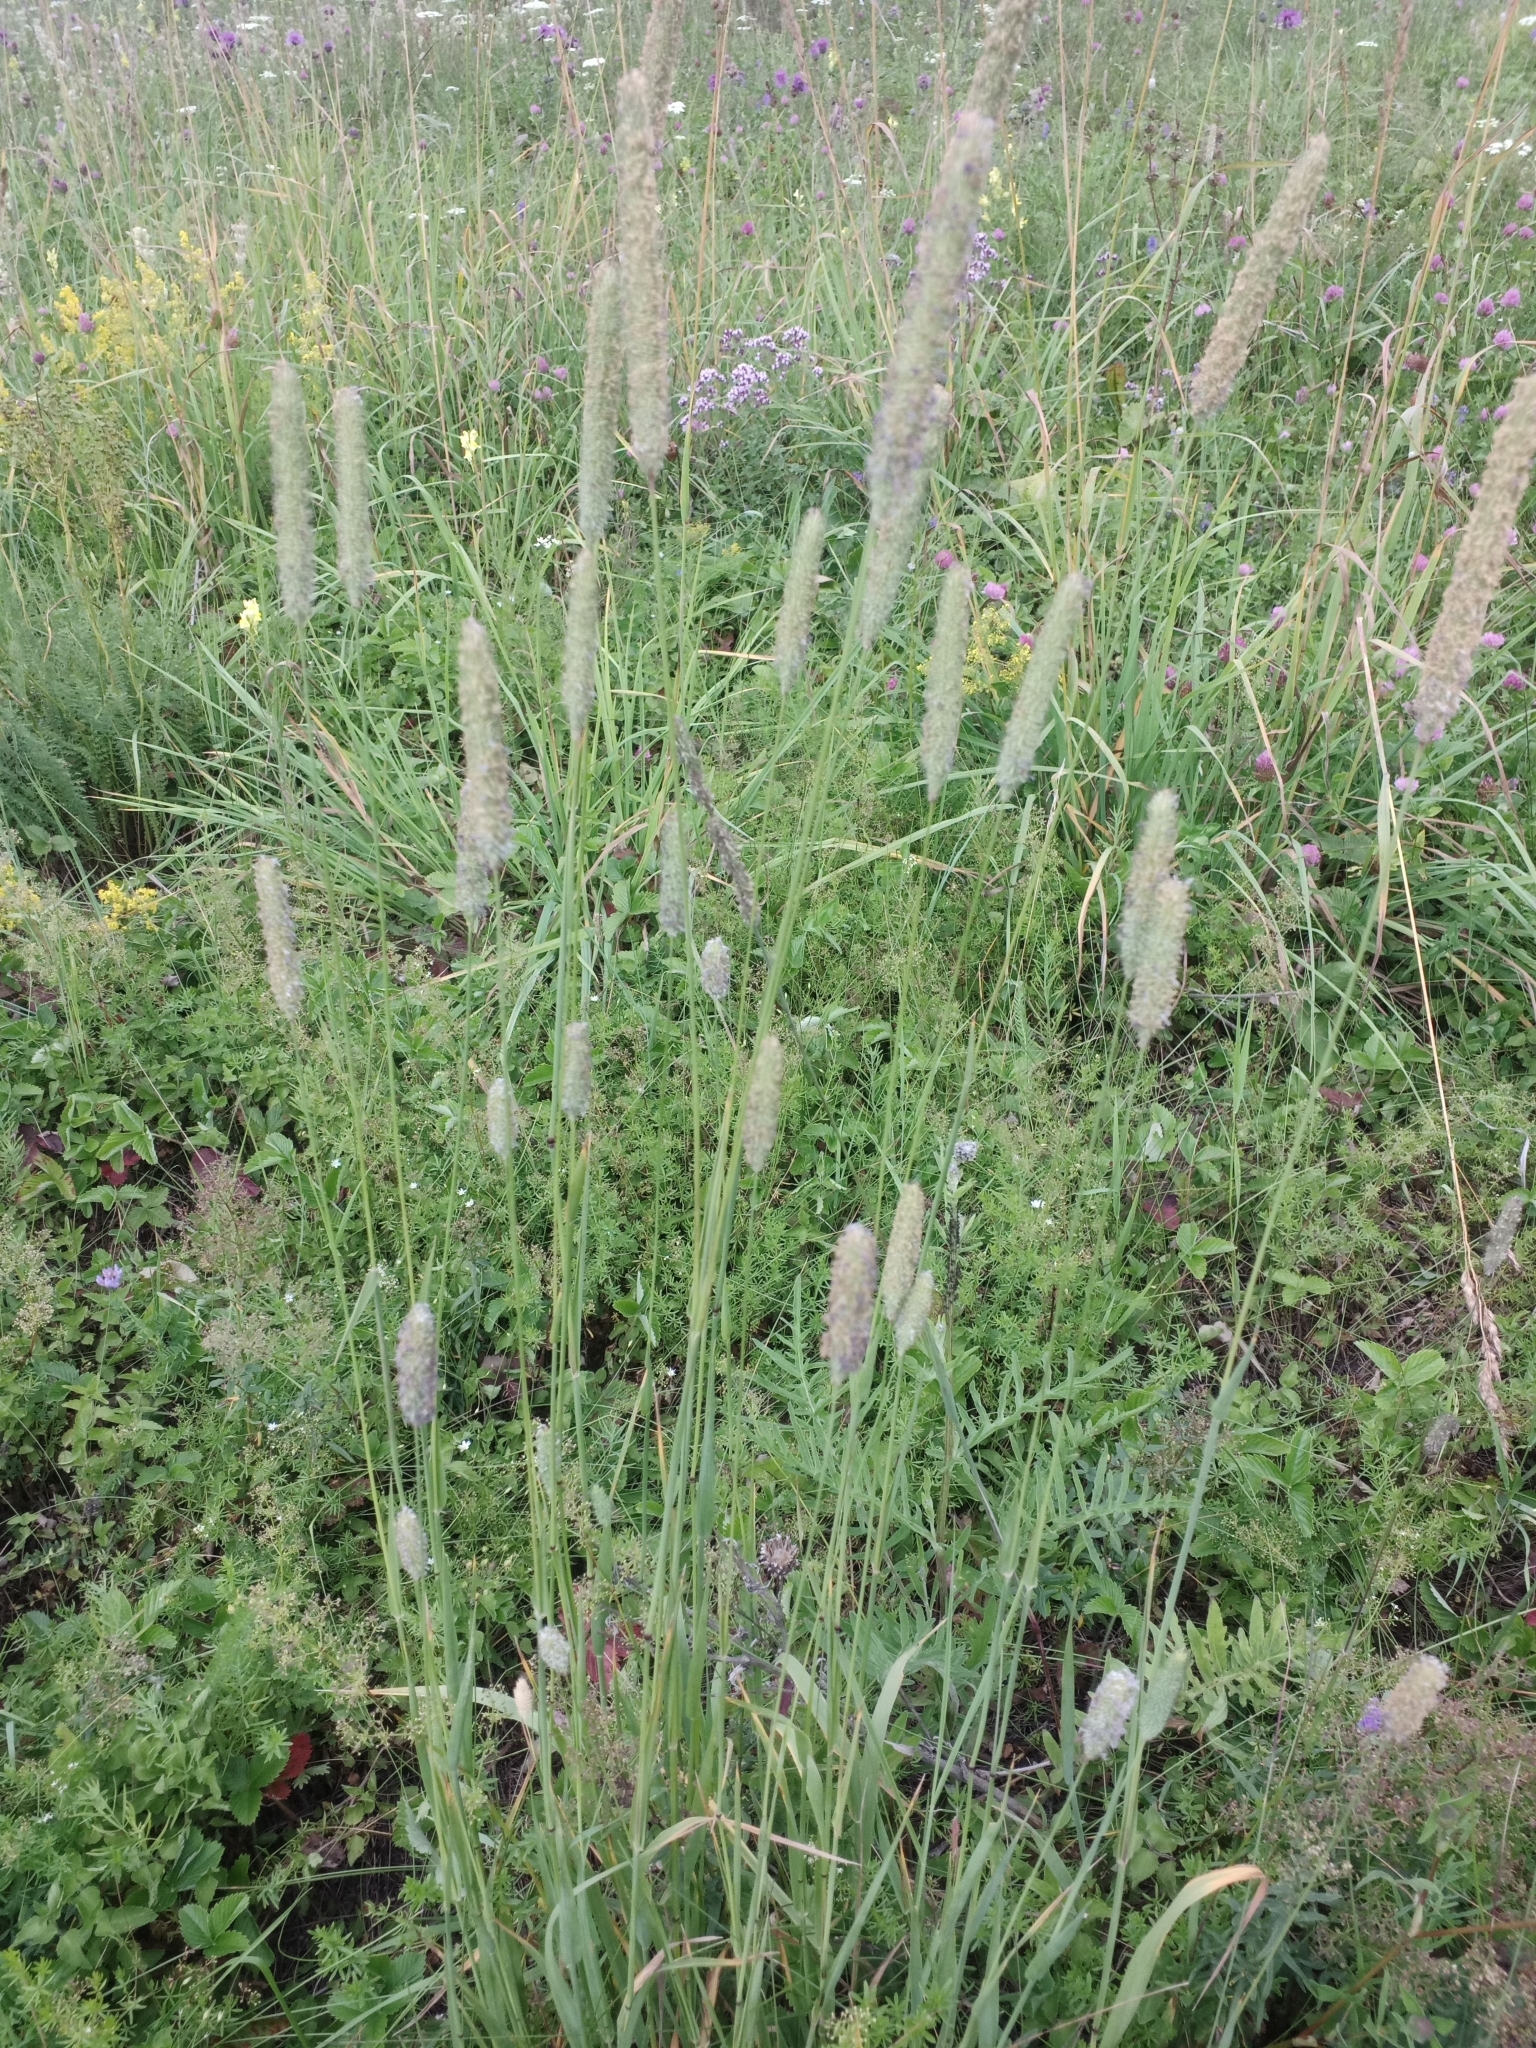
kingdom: Plantae
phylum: Tracheophyta
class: Liliopsida
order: Poales
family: Poaceae
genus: Phleum
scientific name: Phleum pratense
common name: Timothy grass
